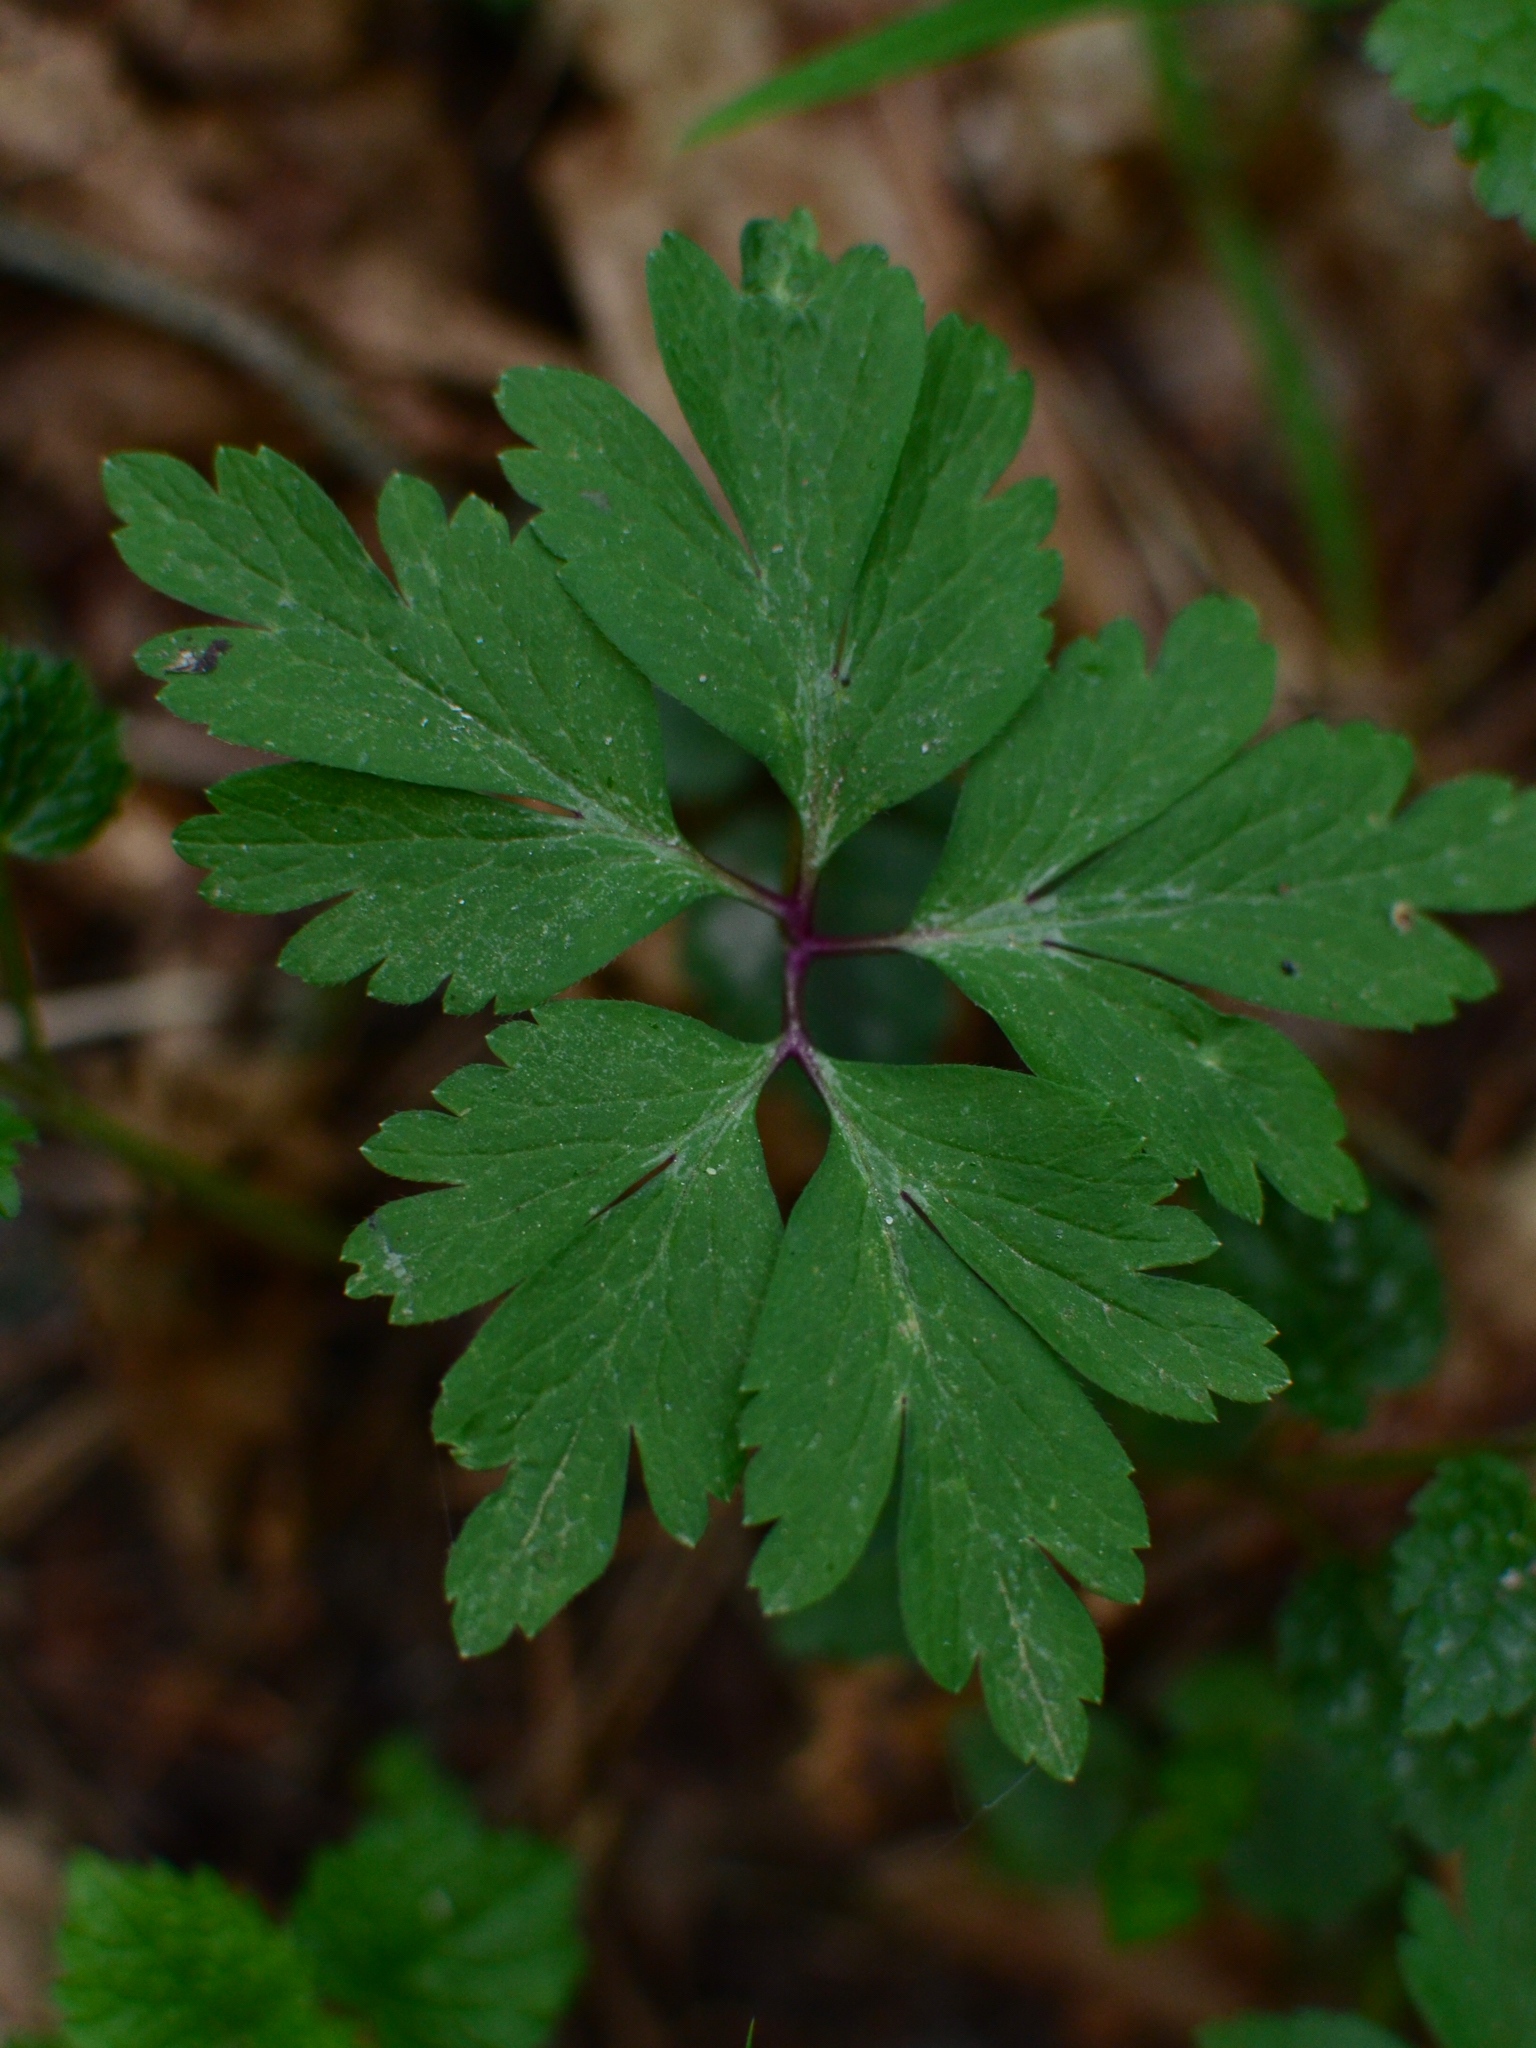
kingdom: Plantae
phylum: Tracheophyta
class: Magnoliopsida
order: Ranunculales
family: Ranunculaceae
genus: Anemone
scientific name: Anemone nemorosa
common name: Wood anemone
